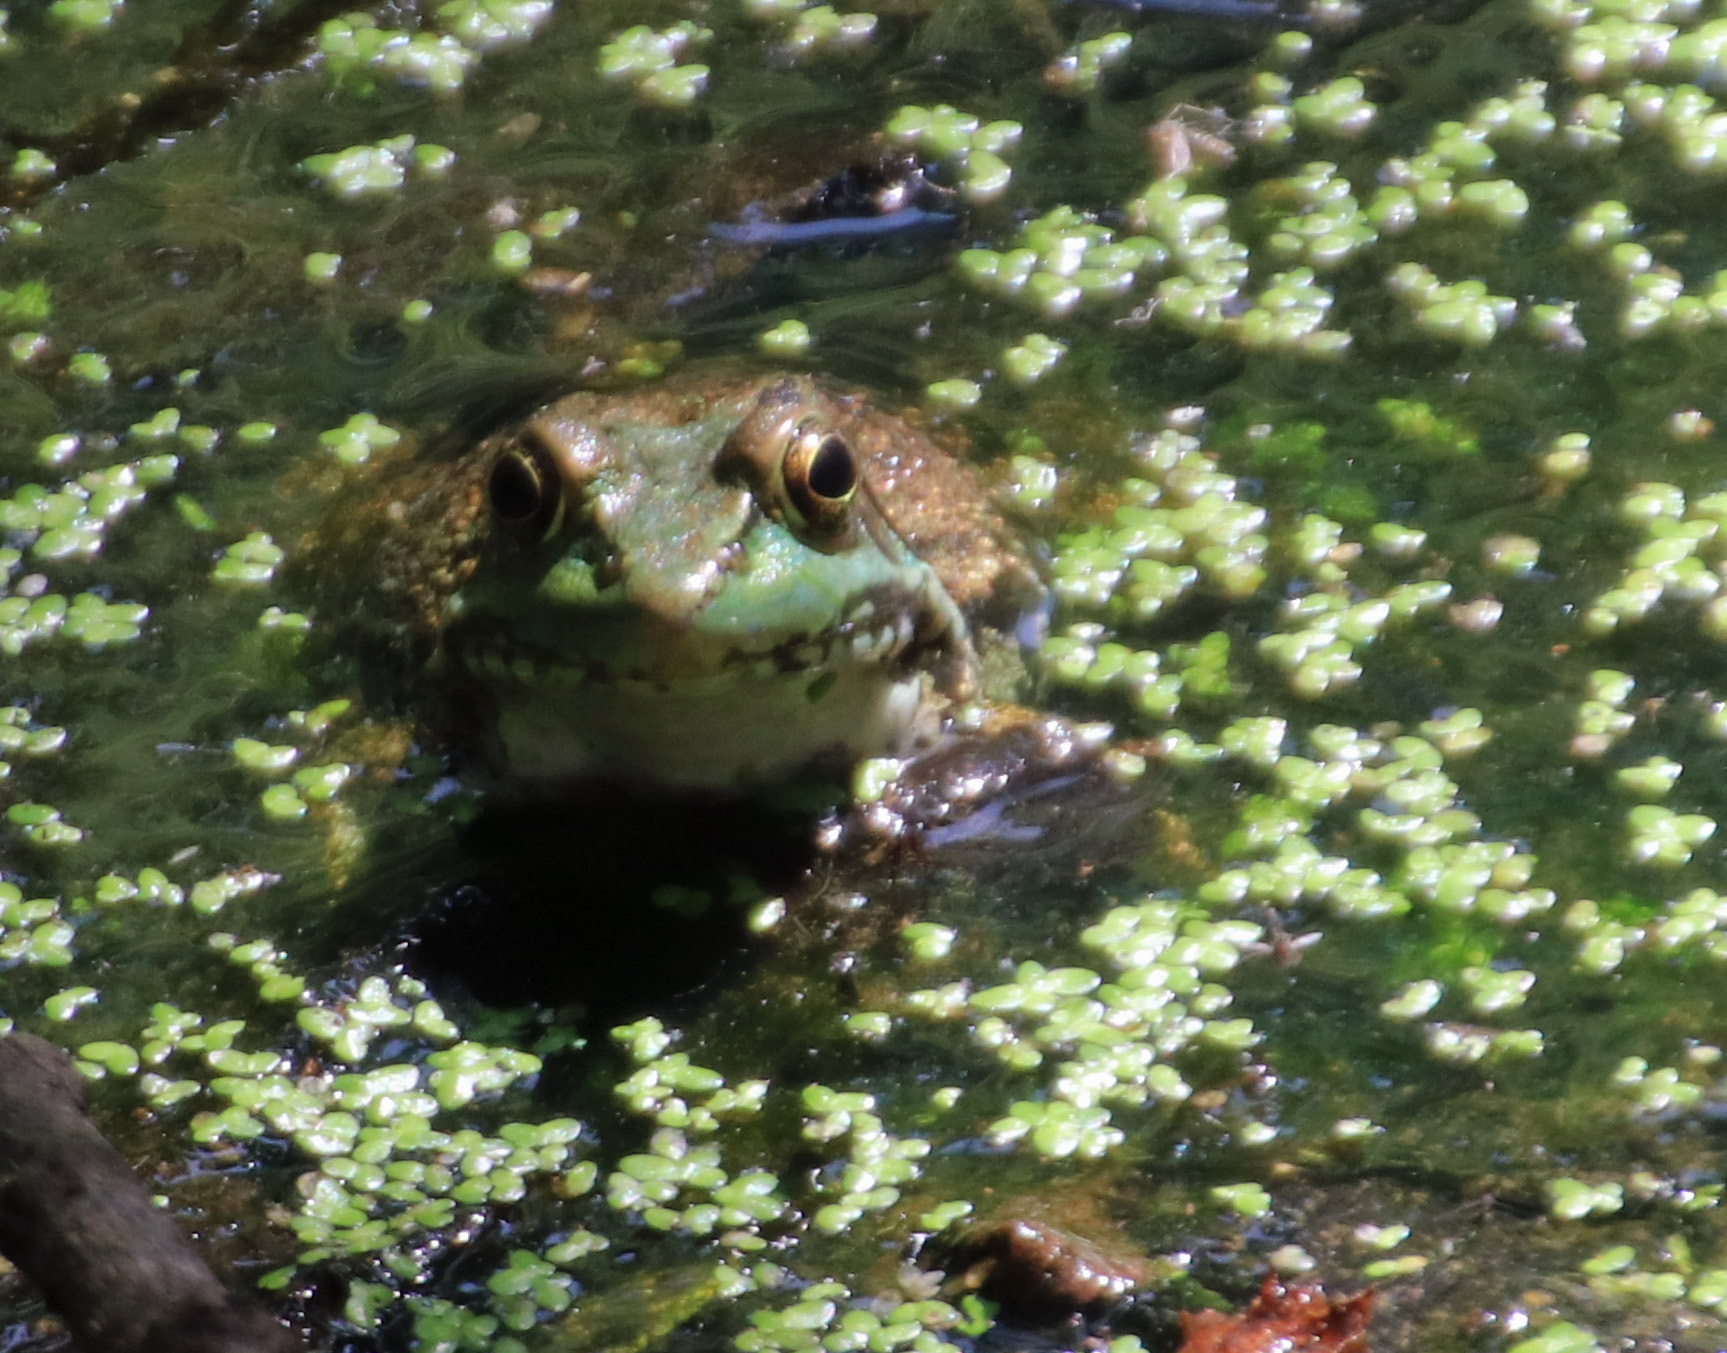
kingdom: Animalia
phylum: Chordata
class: Amphibia
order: Anura
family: Ranidae
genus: Lithobates
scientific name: Lithobates clamitans
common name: Green frog
